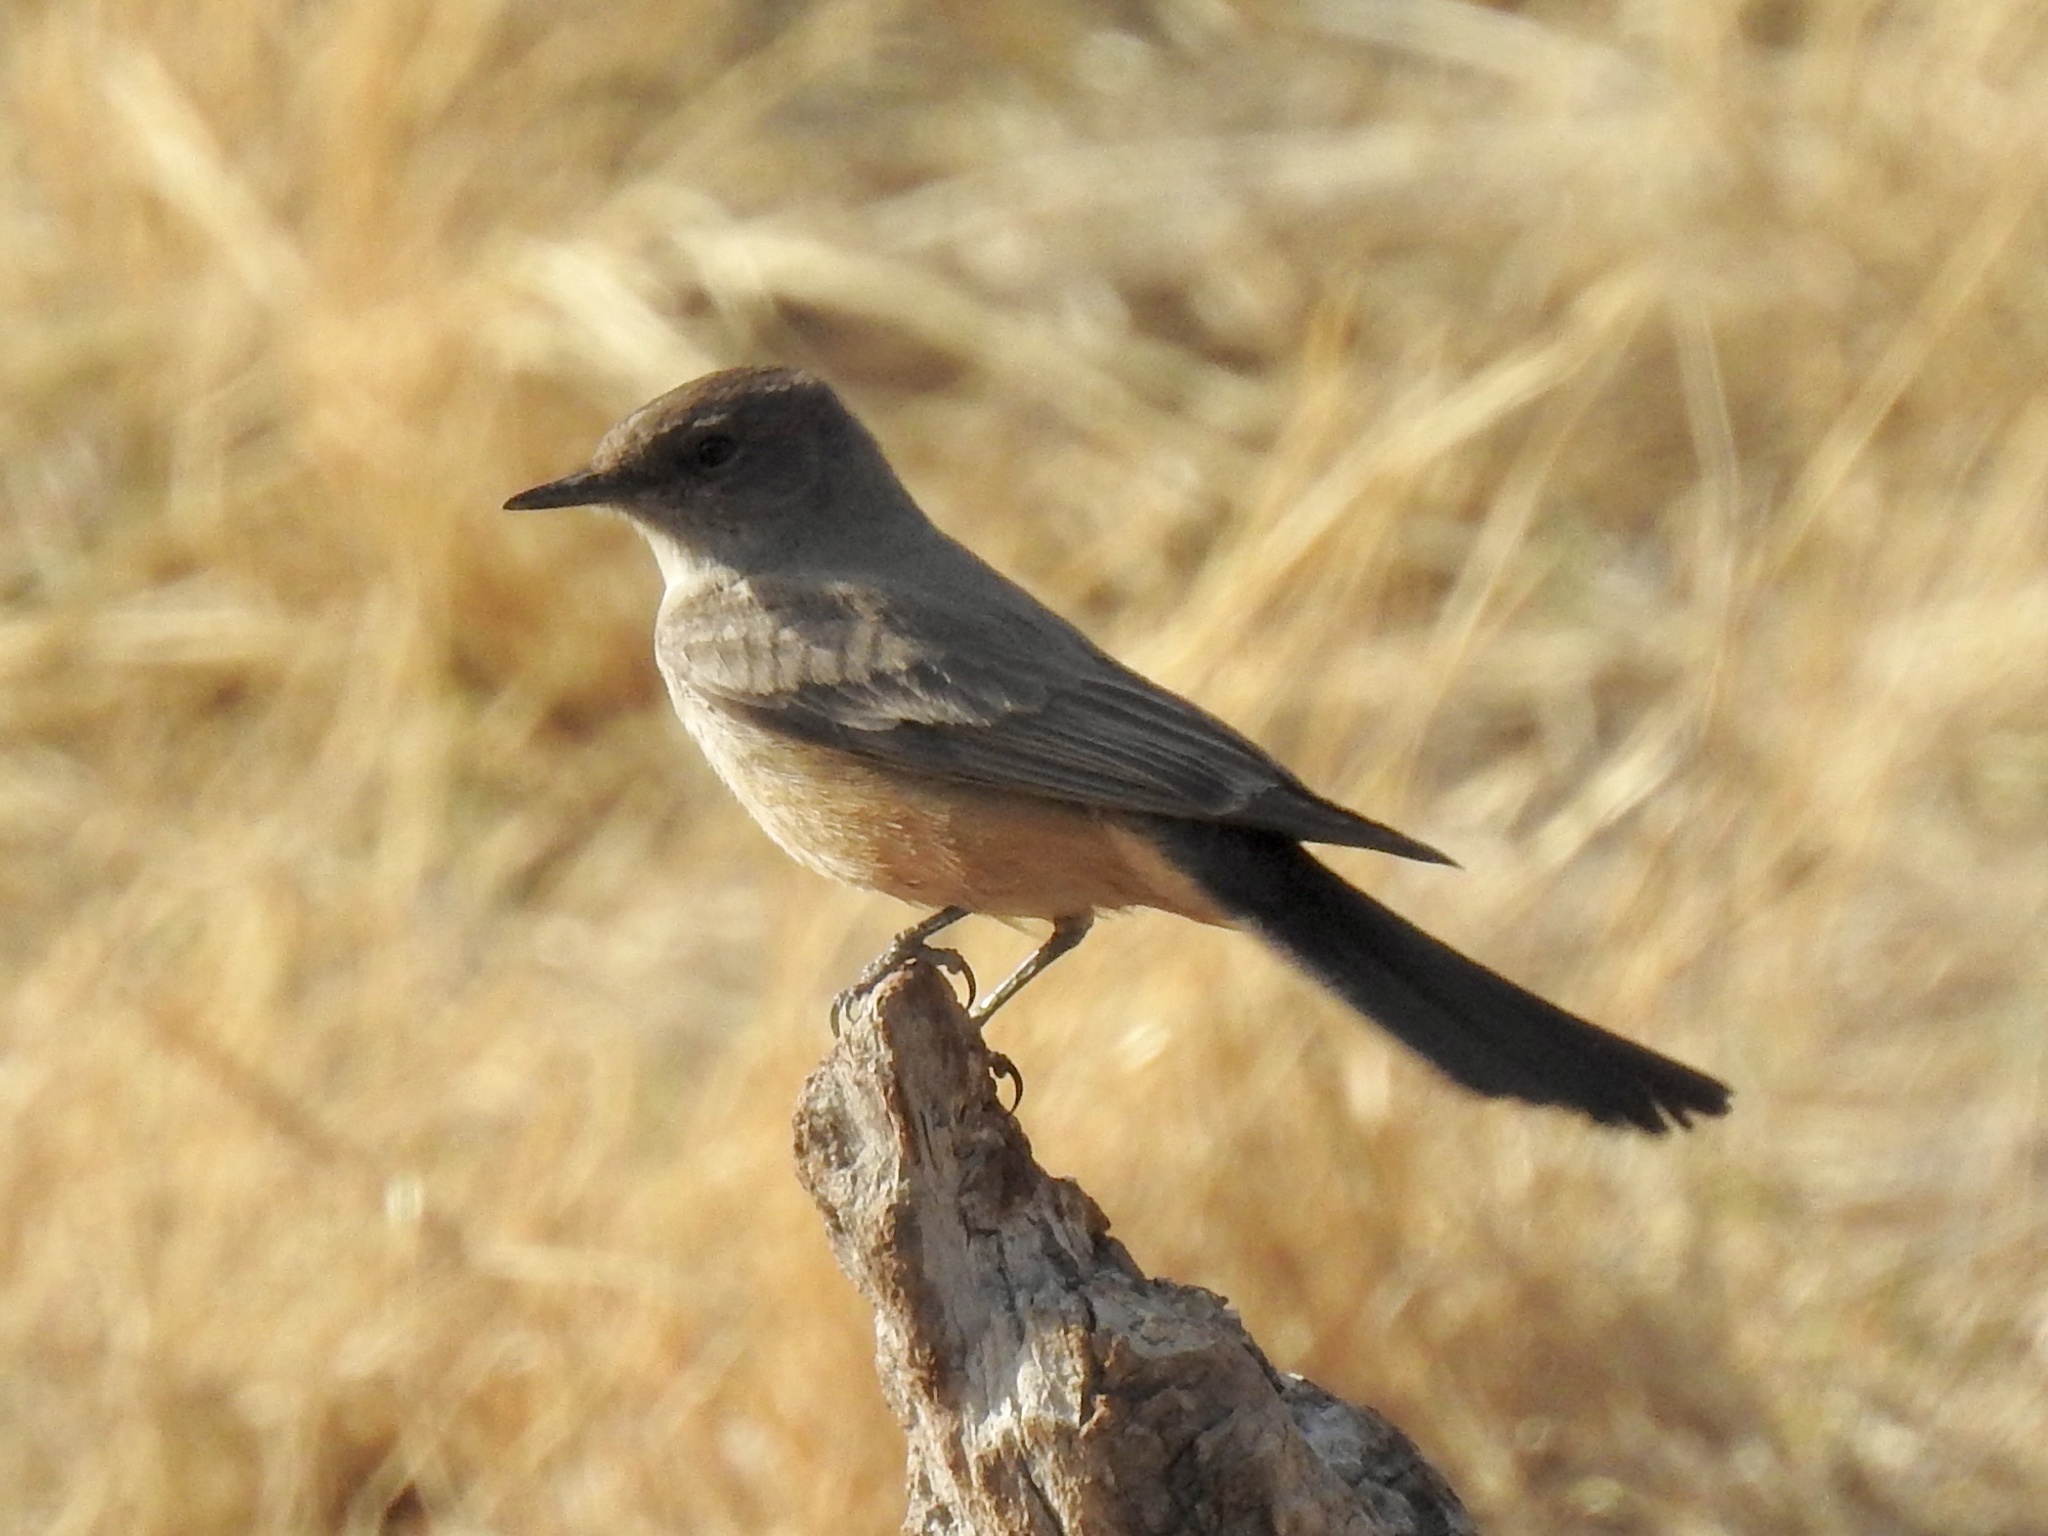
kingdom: Animalia
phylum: Chordata
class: Aves
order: Passeriformes
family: Tyrannidae
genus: Sayornis
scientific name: Sayornis saya
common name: Say's phoebe
